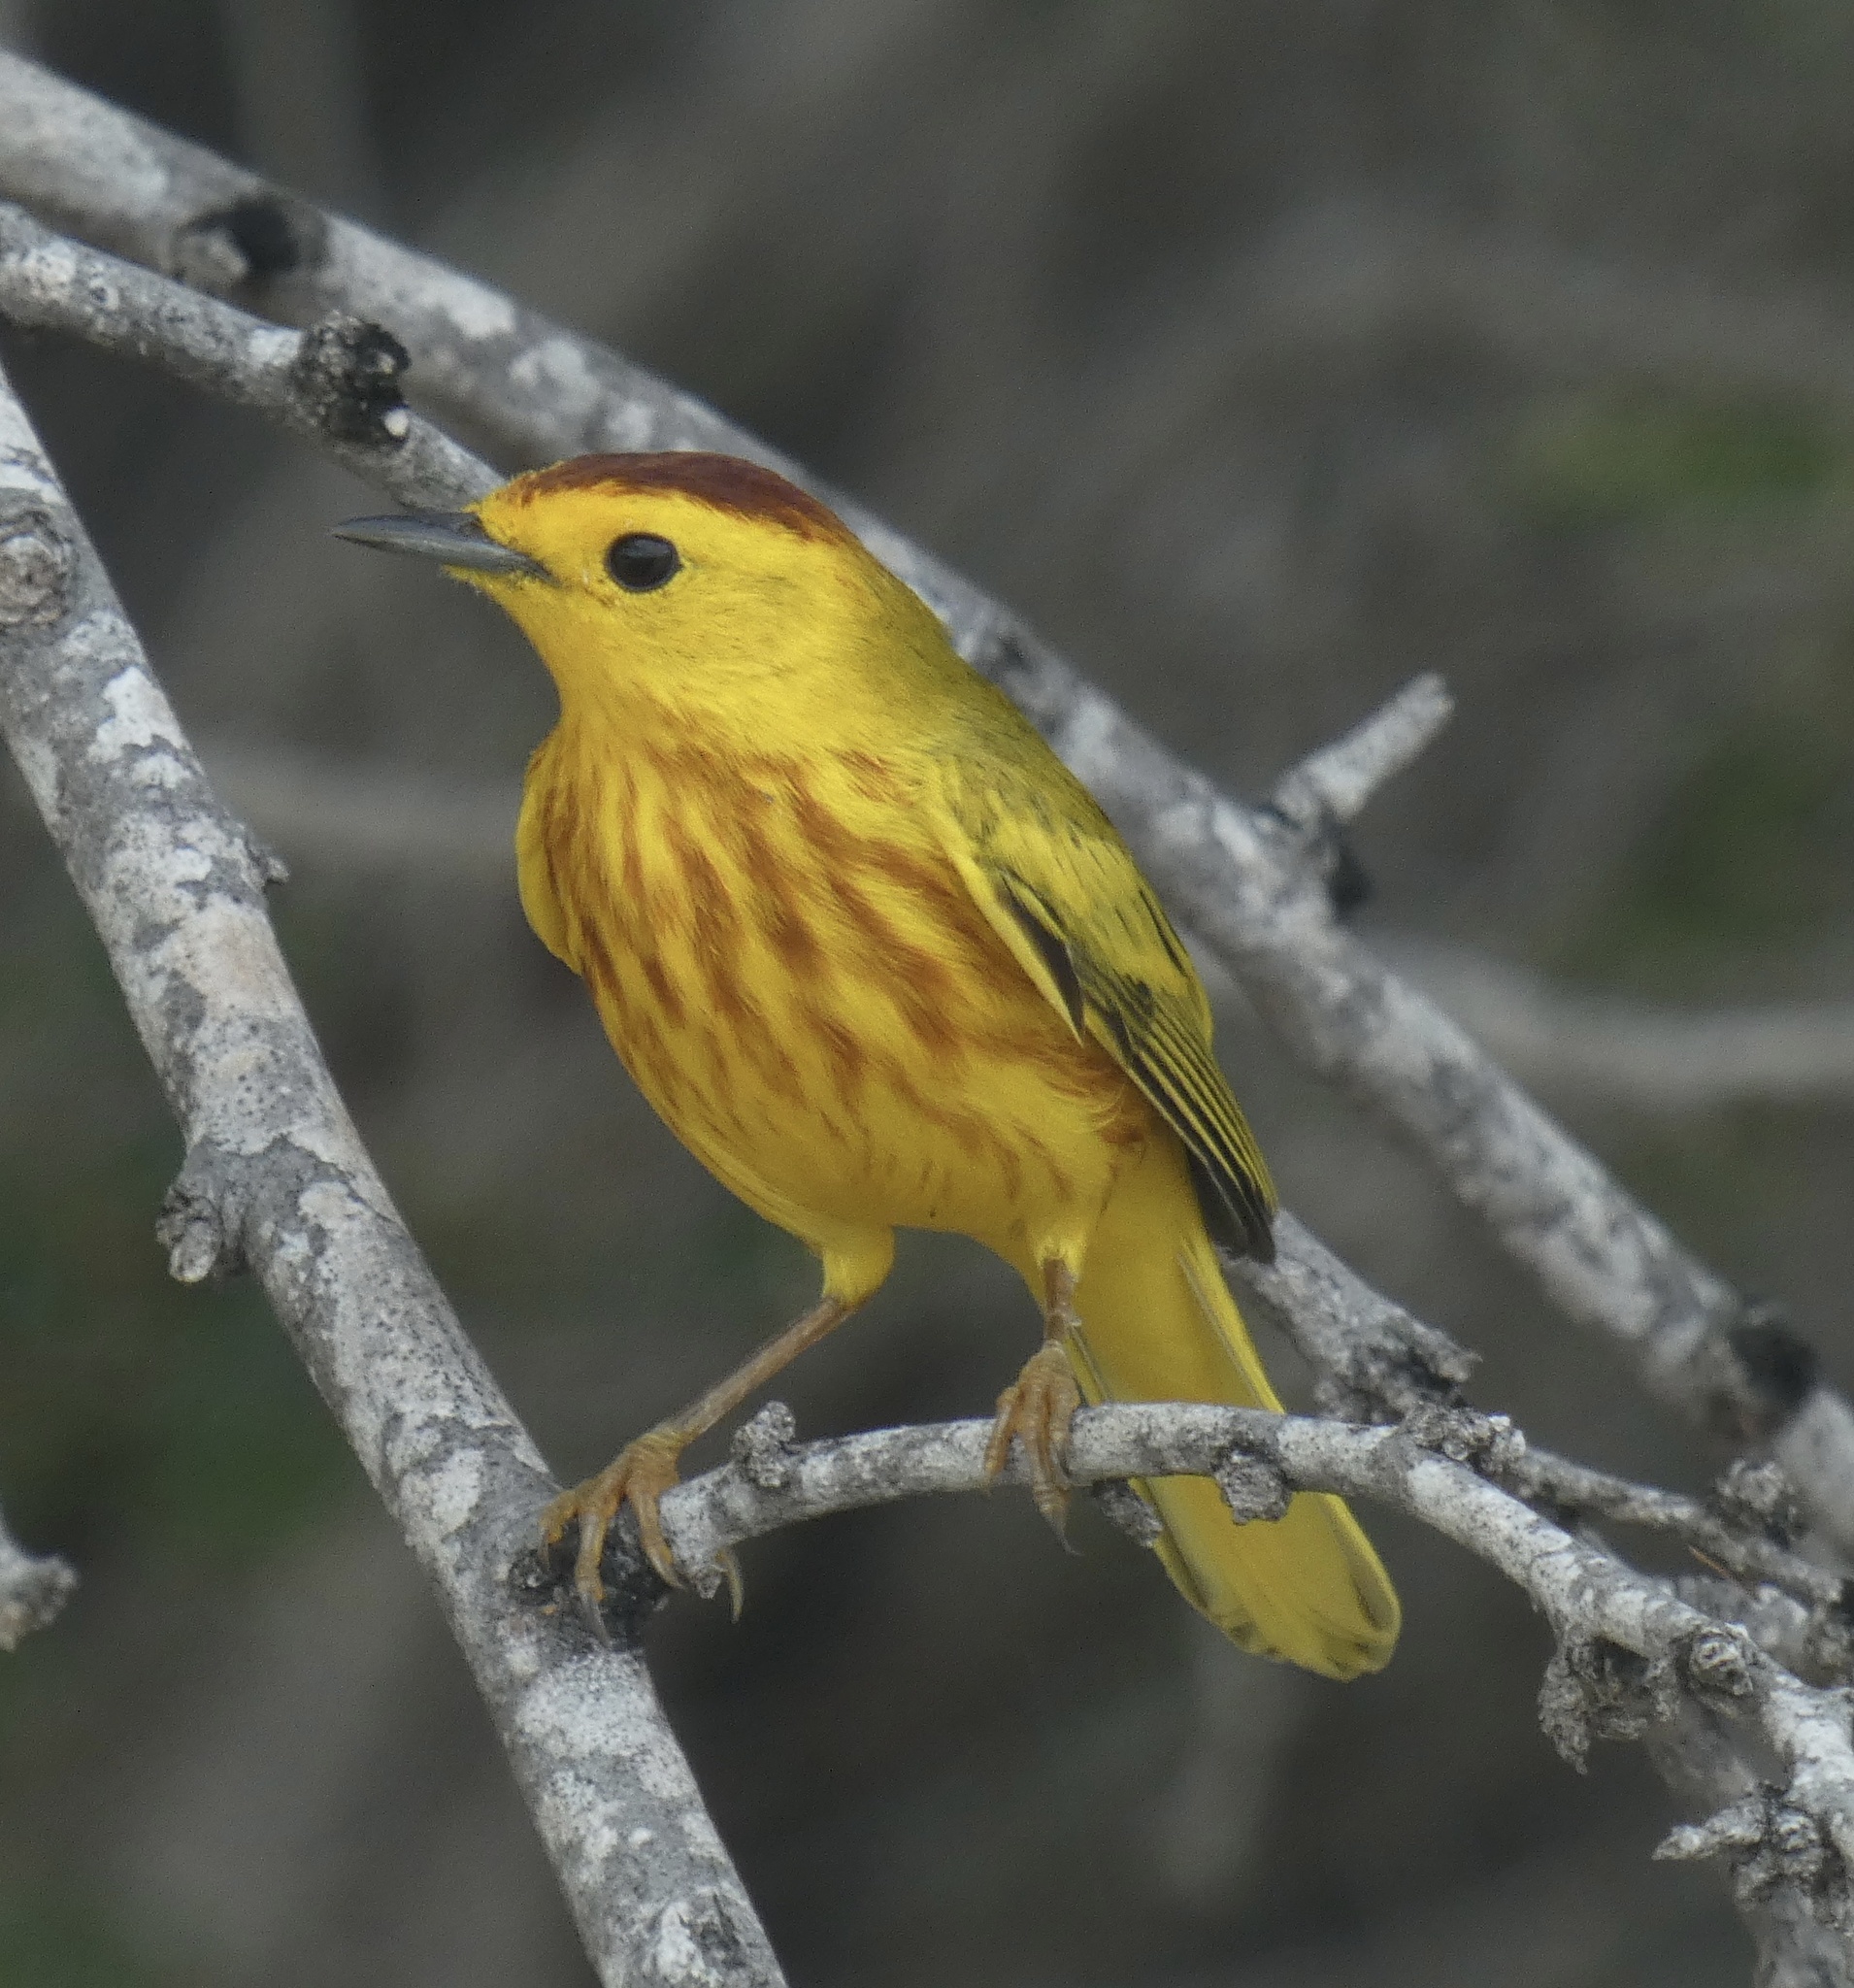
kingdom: Animalia
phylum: Chordata
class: Aves
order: Passeriformes
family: Parulidae
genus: Setophaga
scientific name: Setophaga petechia
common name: Yellow warbler
